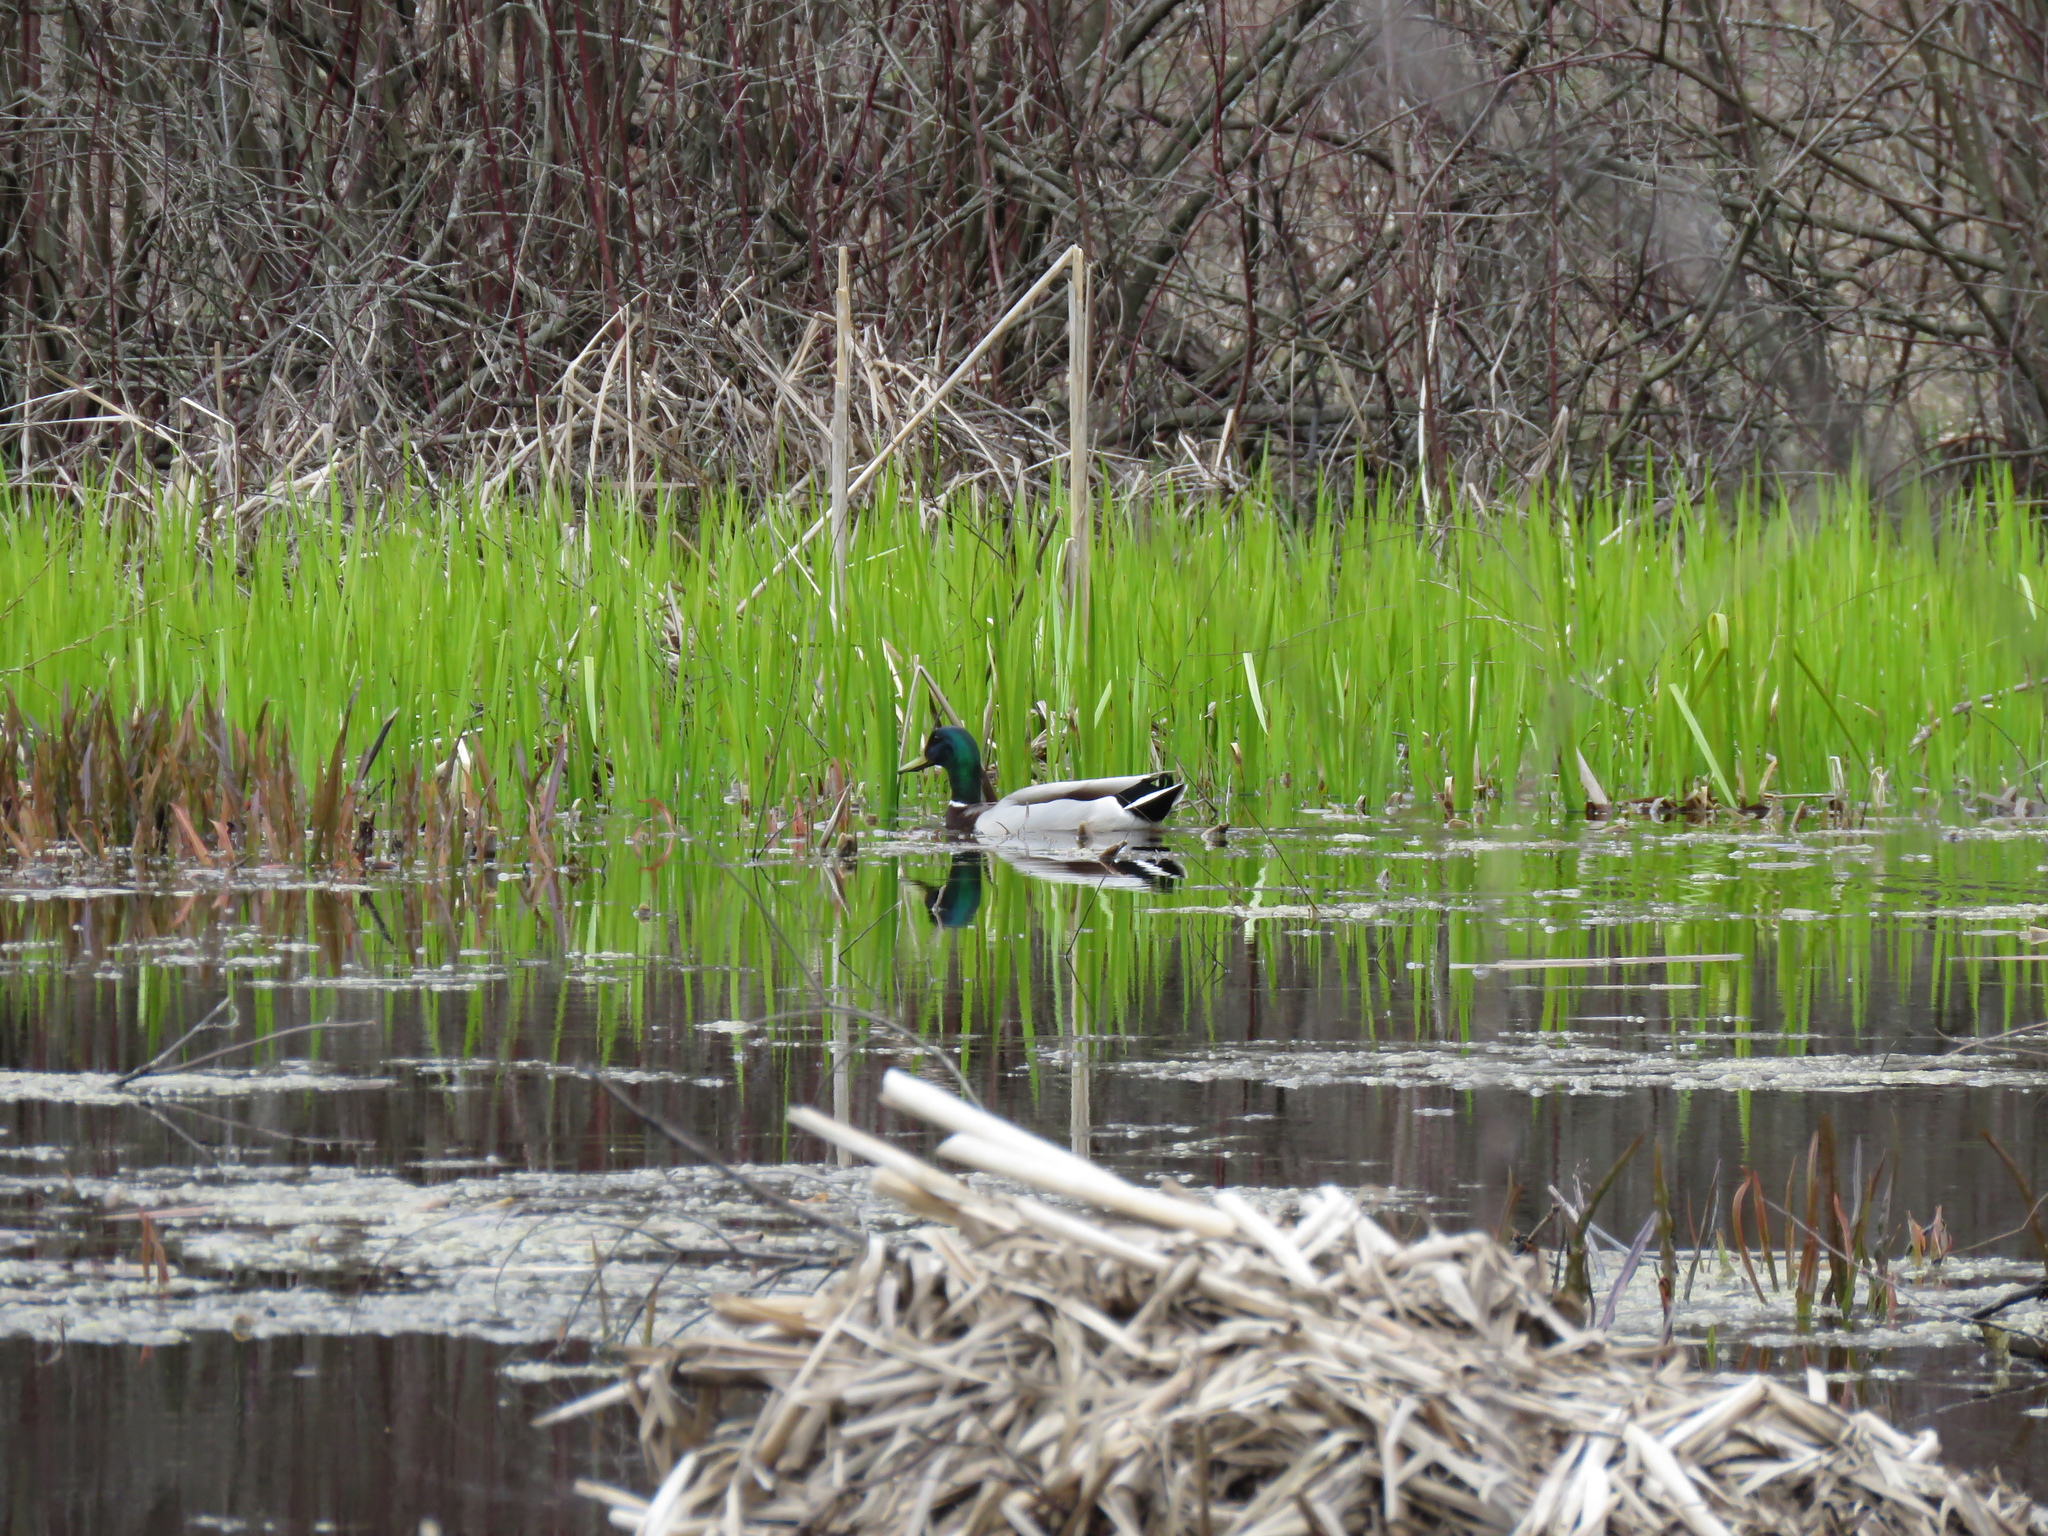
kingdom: Animalia
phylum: Chordata
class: Aves
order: Anseriformes
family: Anatidae
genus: Anas
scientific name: Anas platyrhynchos
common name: Mallard
